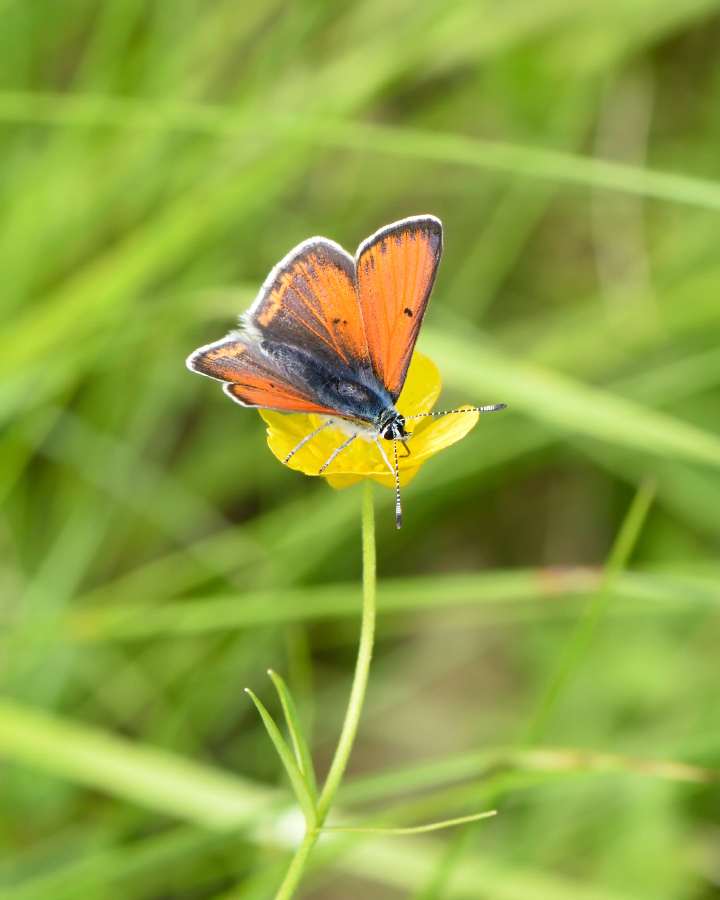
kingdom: Animalia
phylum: Arthropoda
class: Insecta
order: Lepidoptera
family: Lycaenidae
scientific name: Lycaenidae
